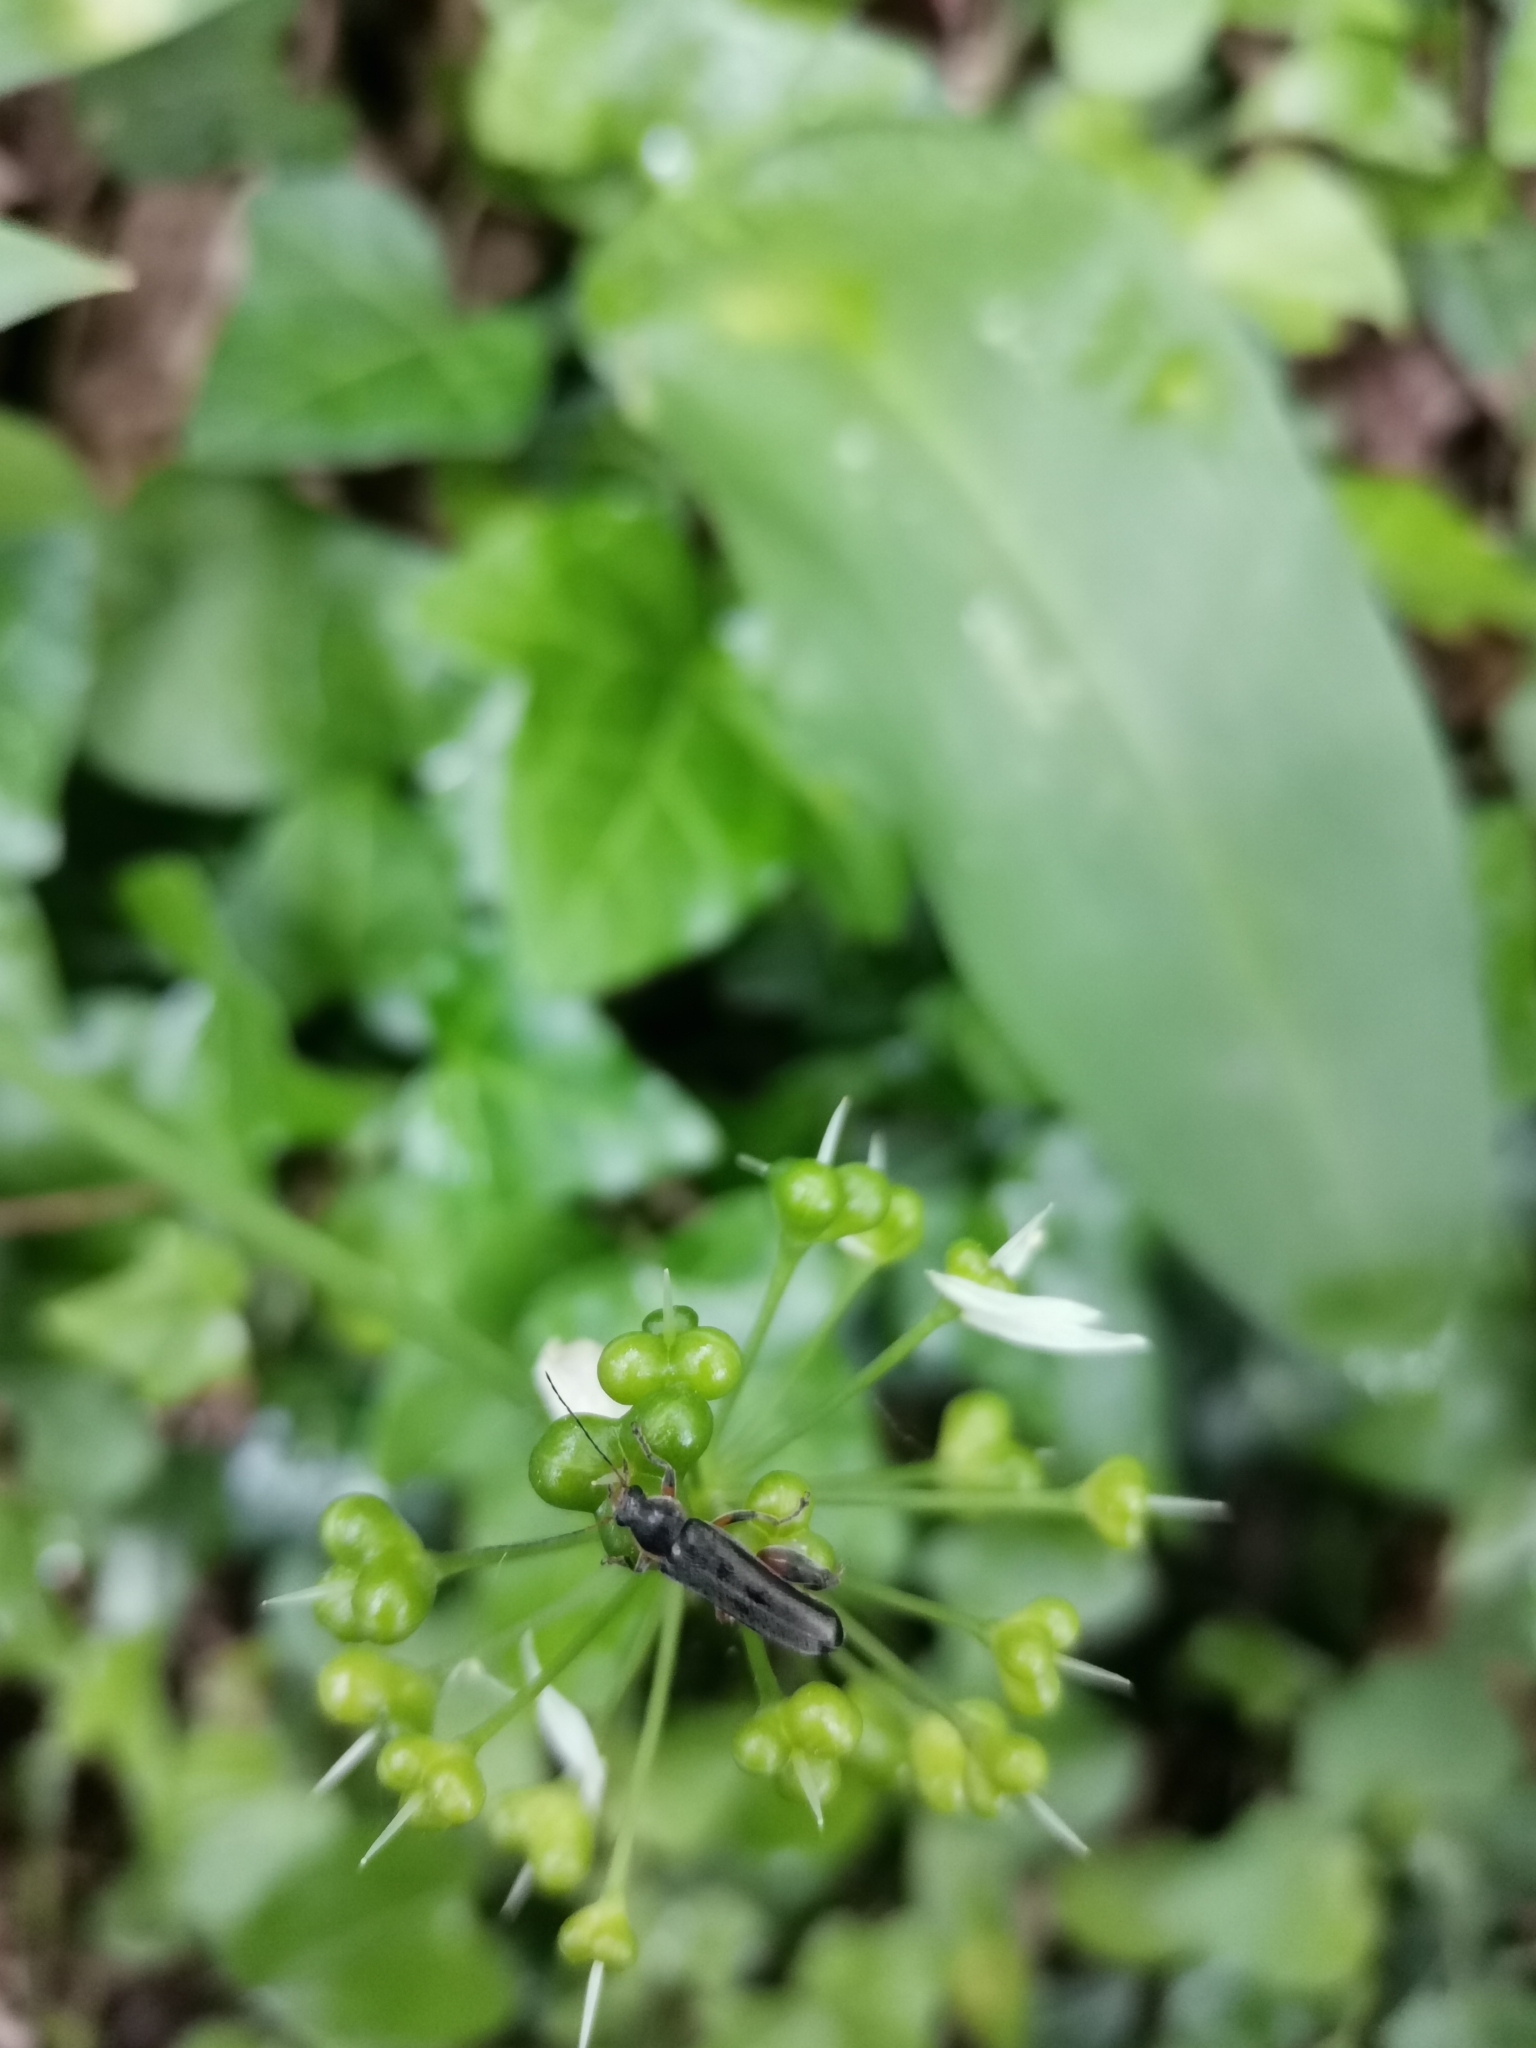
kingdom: Animalia
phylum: Arthropoda
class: Insecta
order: Coleoptera
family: Melandryidae
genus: Osphya
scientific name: Osphya bipunctata
